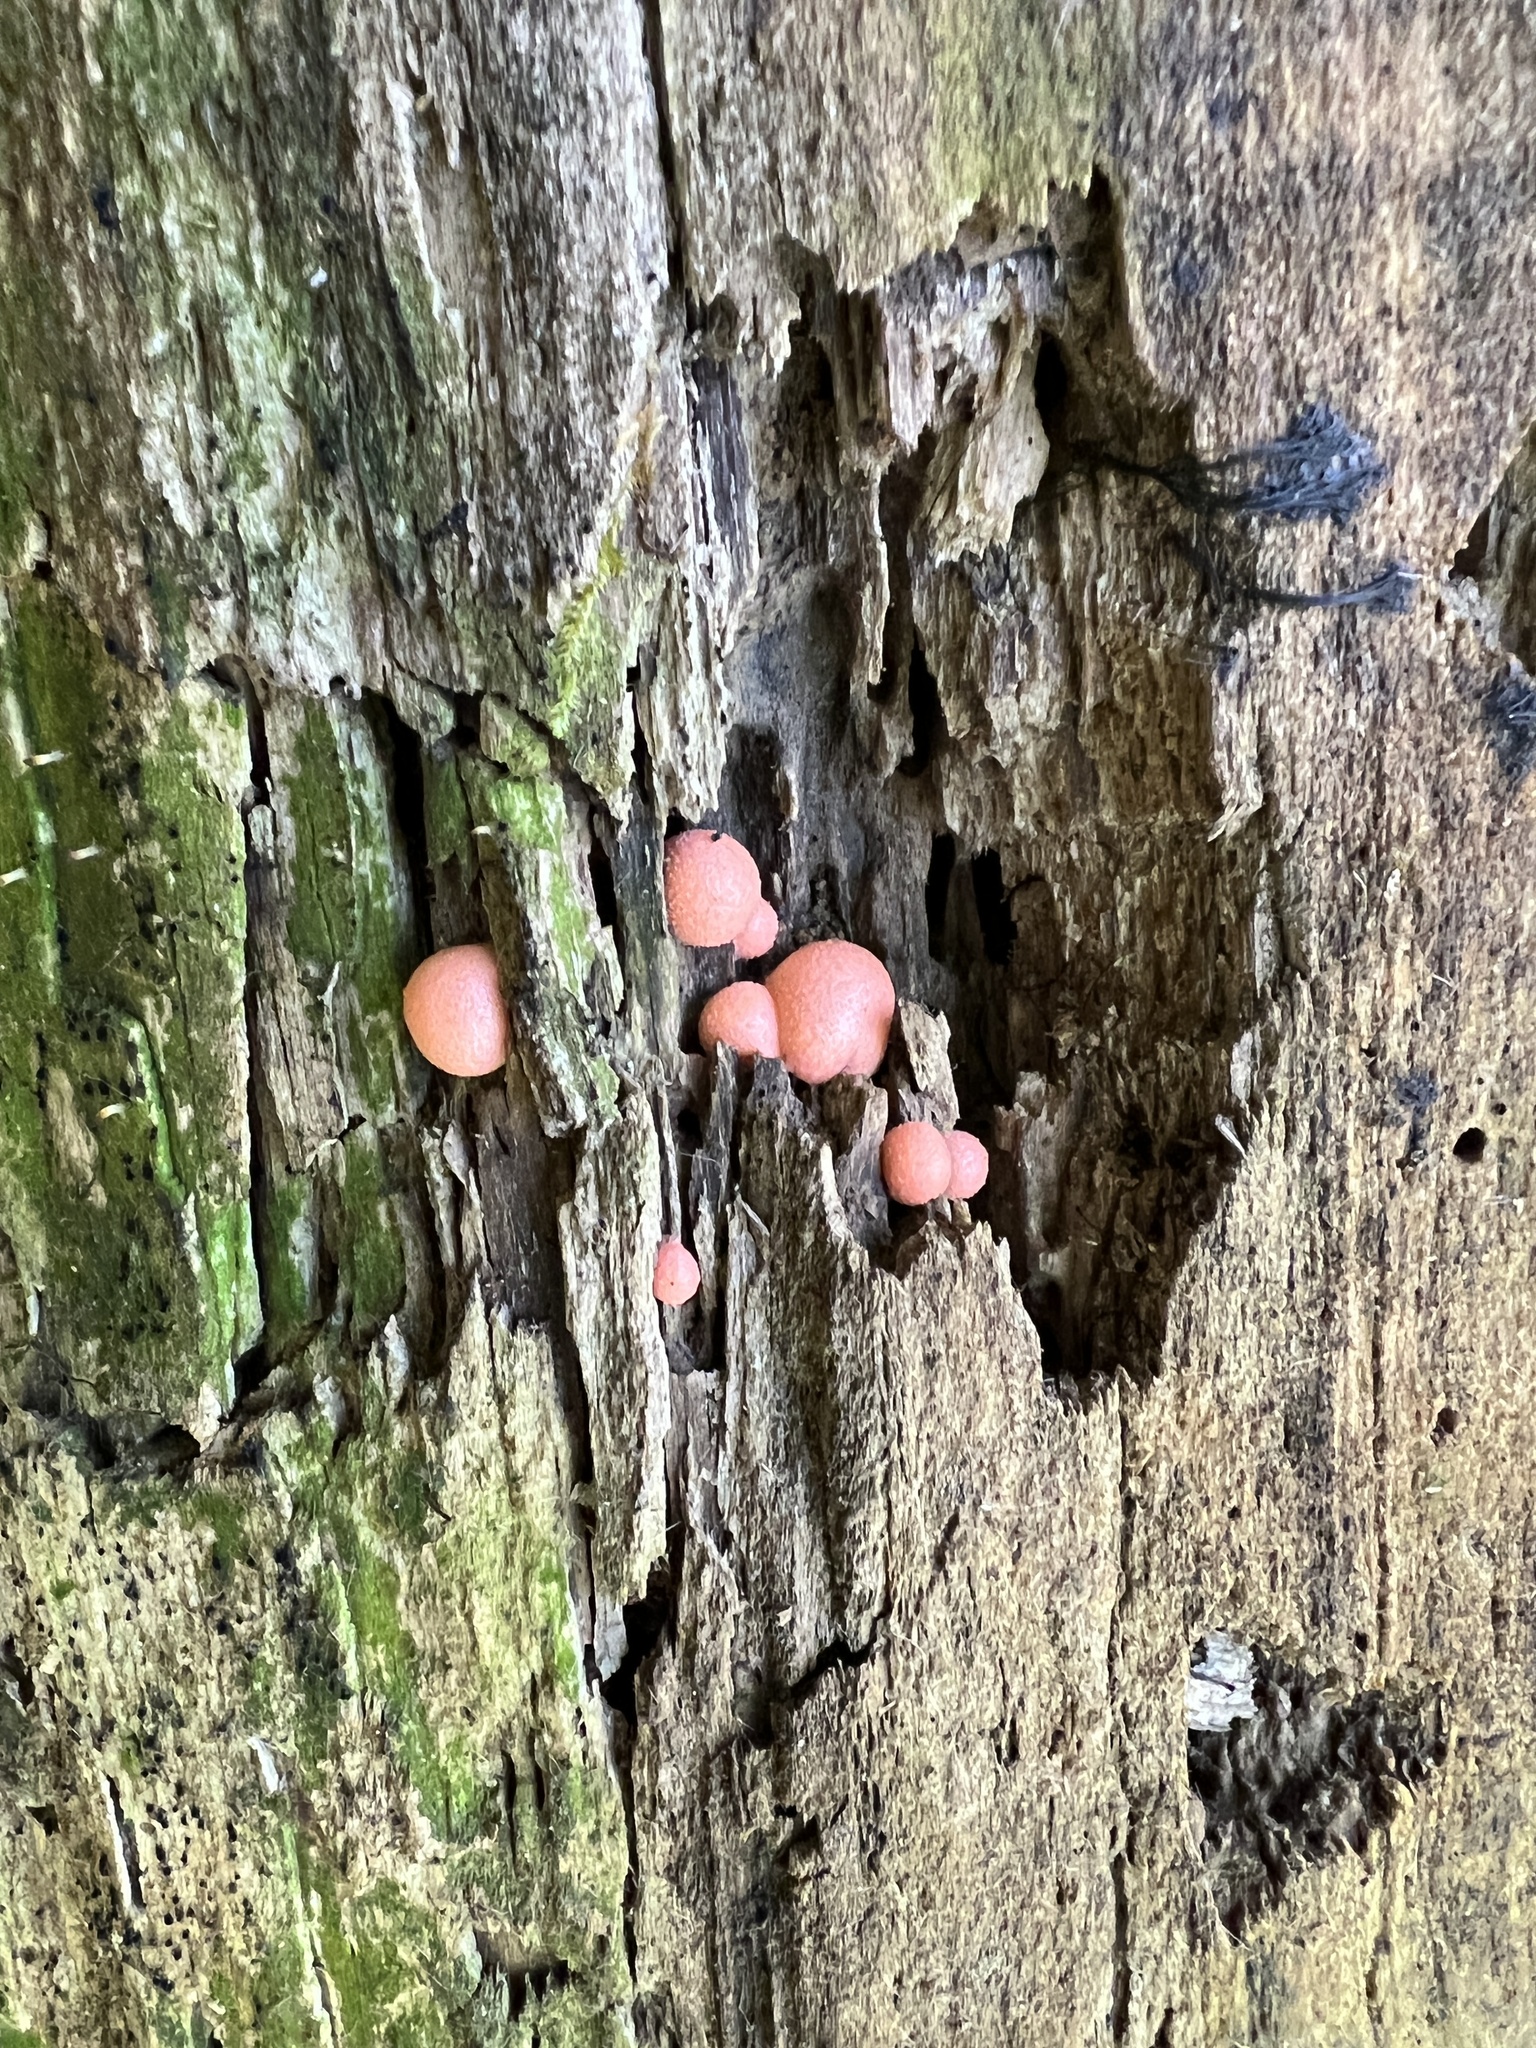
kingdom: Protozoa
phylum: Mycetozoa
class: Myxomycetes
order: Cribrariales
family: Tubiferaceae
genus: Lycogala
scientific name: Lycogala epidendrum
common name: Wolf's milk
